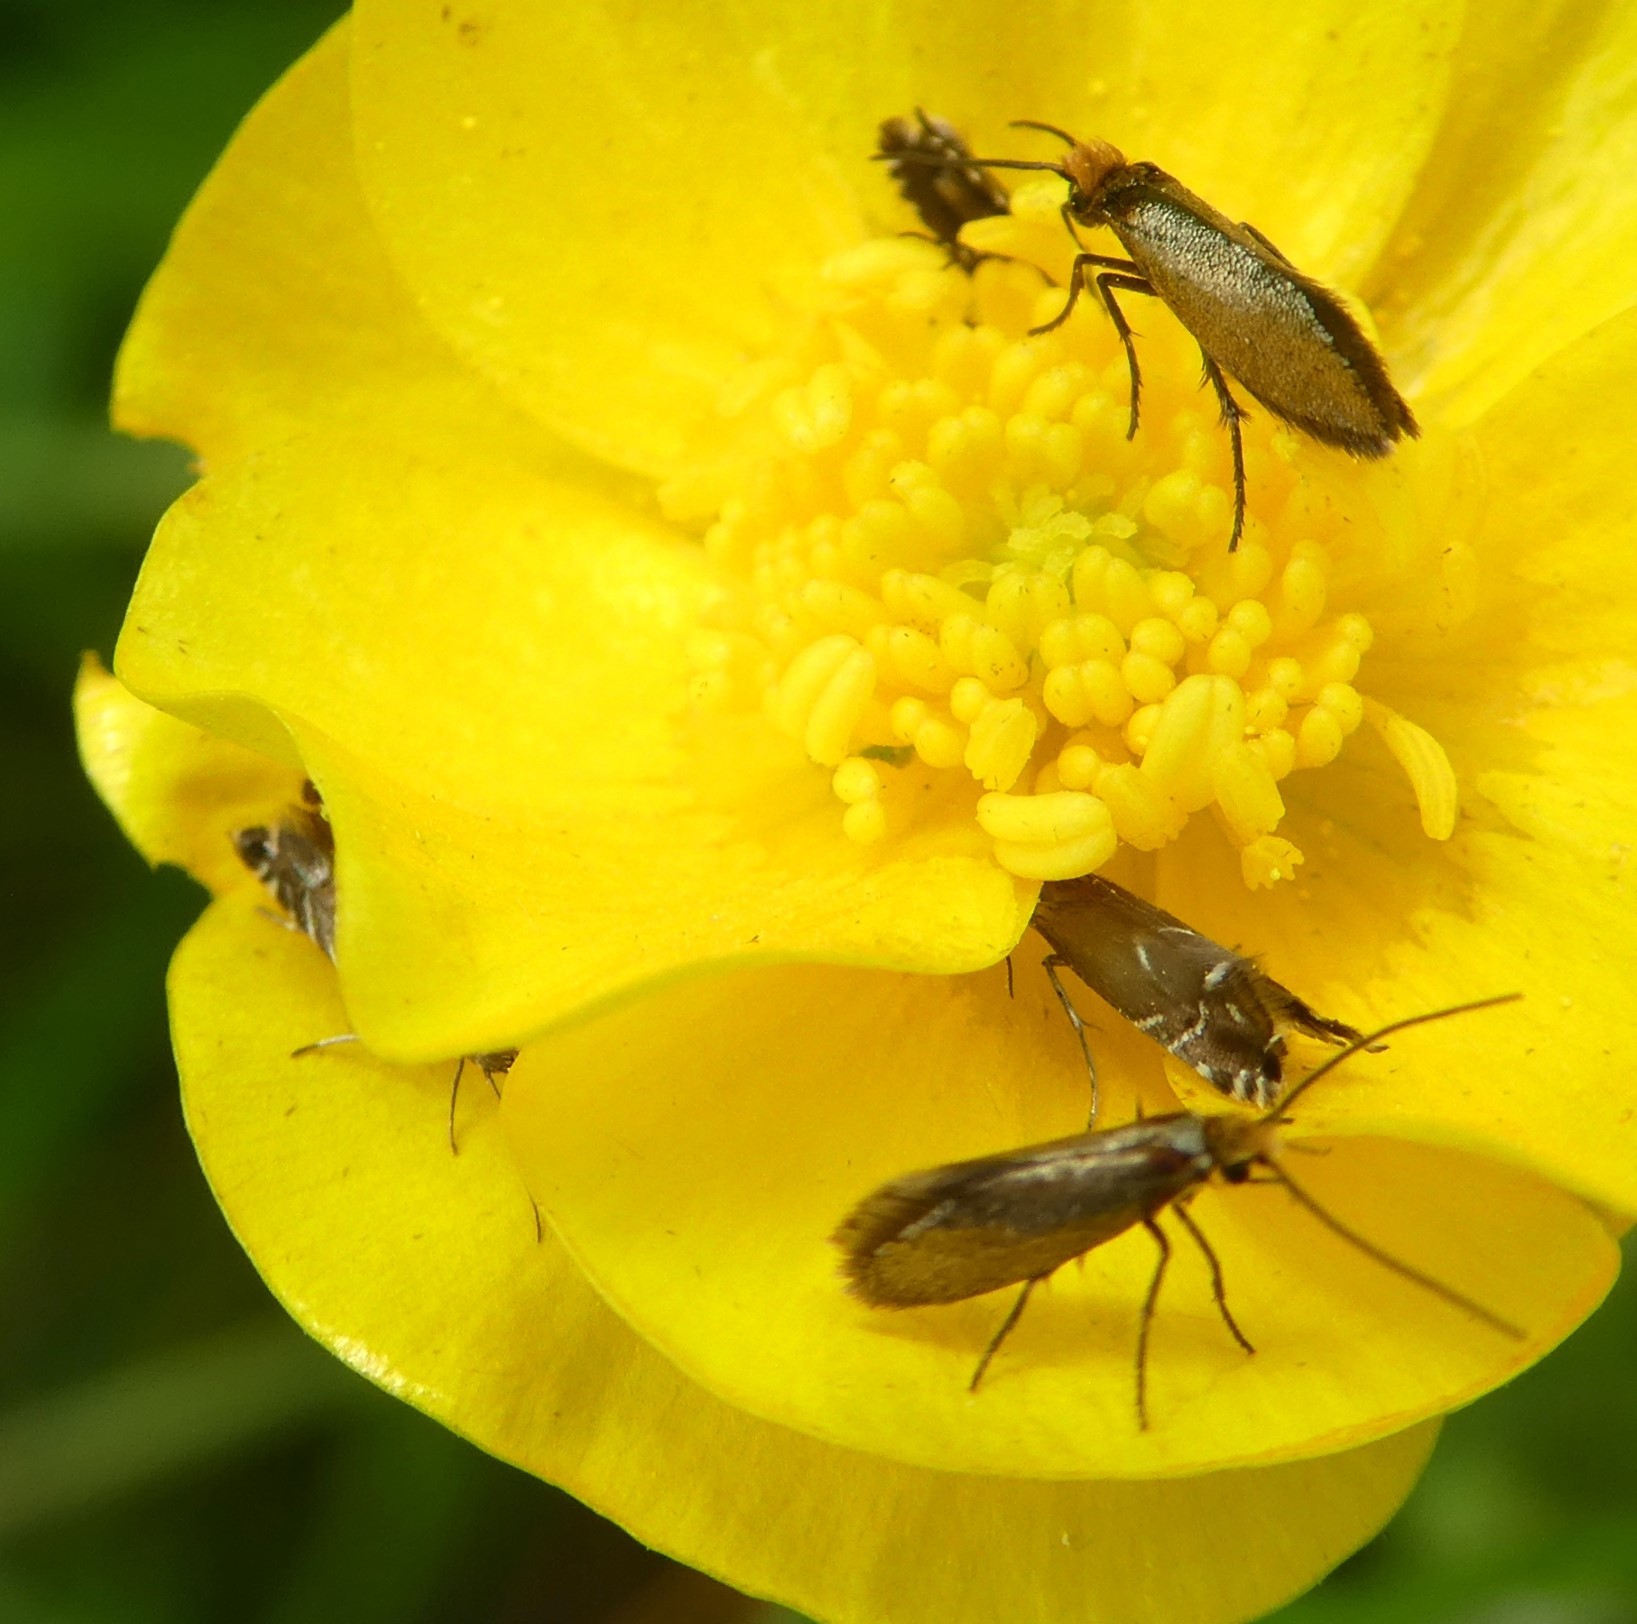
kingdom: Animalia
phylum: Arthropoda
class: Insecta
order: Lepidoptera
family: Glyphipterigidae
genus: Glyphipterix
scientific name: Glyphipterix simpliciella
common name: Cocksfoot moth
